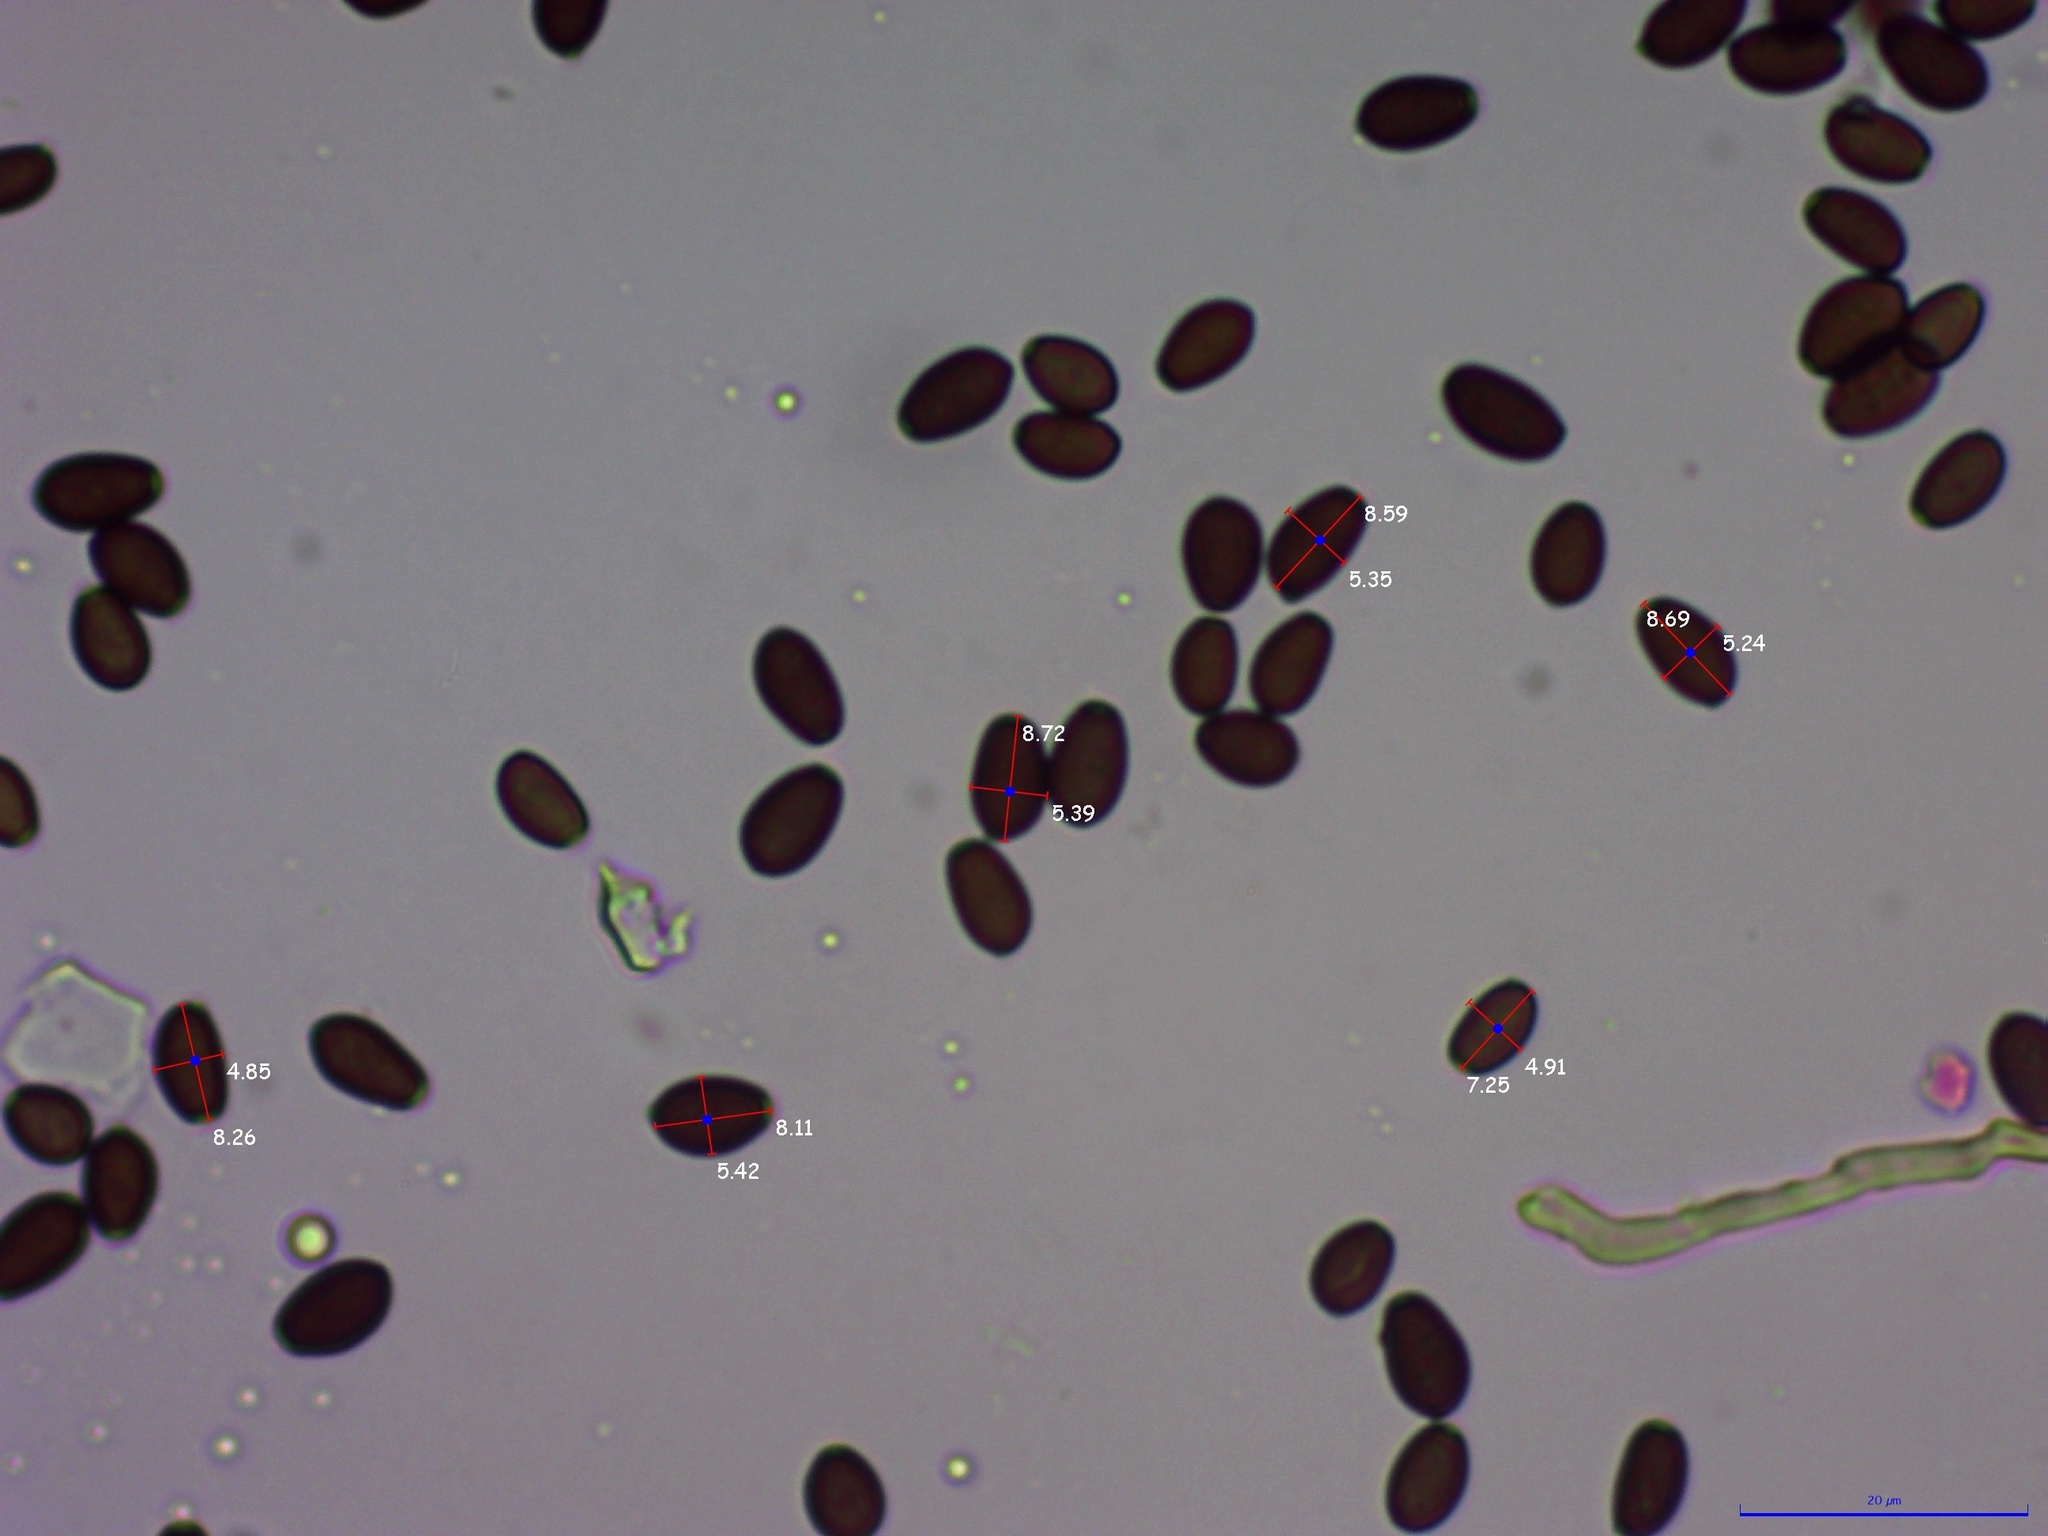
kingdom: Fungi
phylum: Basidiomycota
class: Agaricomycetes
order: Agaricales
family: Psathyrellaceae
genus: Coprinellus
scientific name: Coprinellus truncorum
